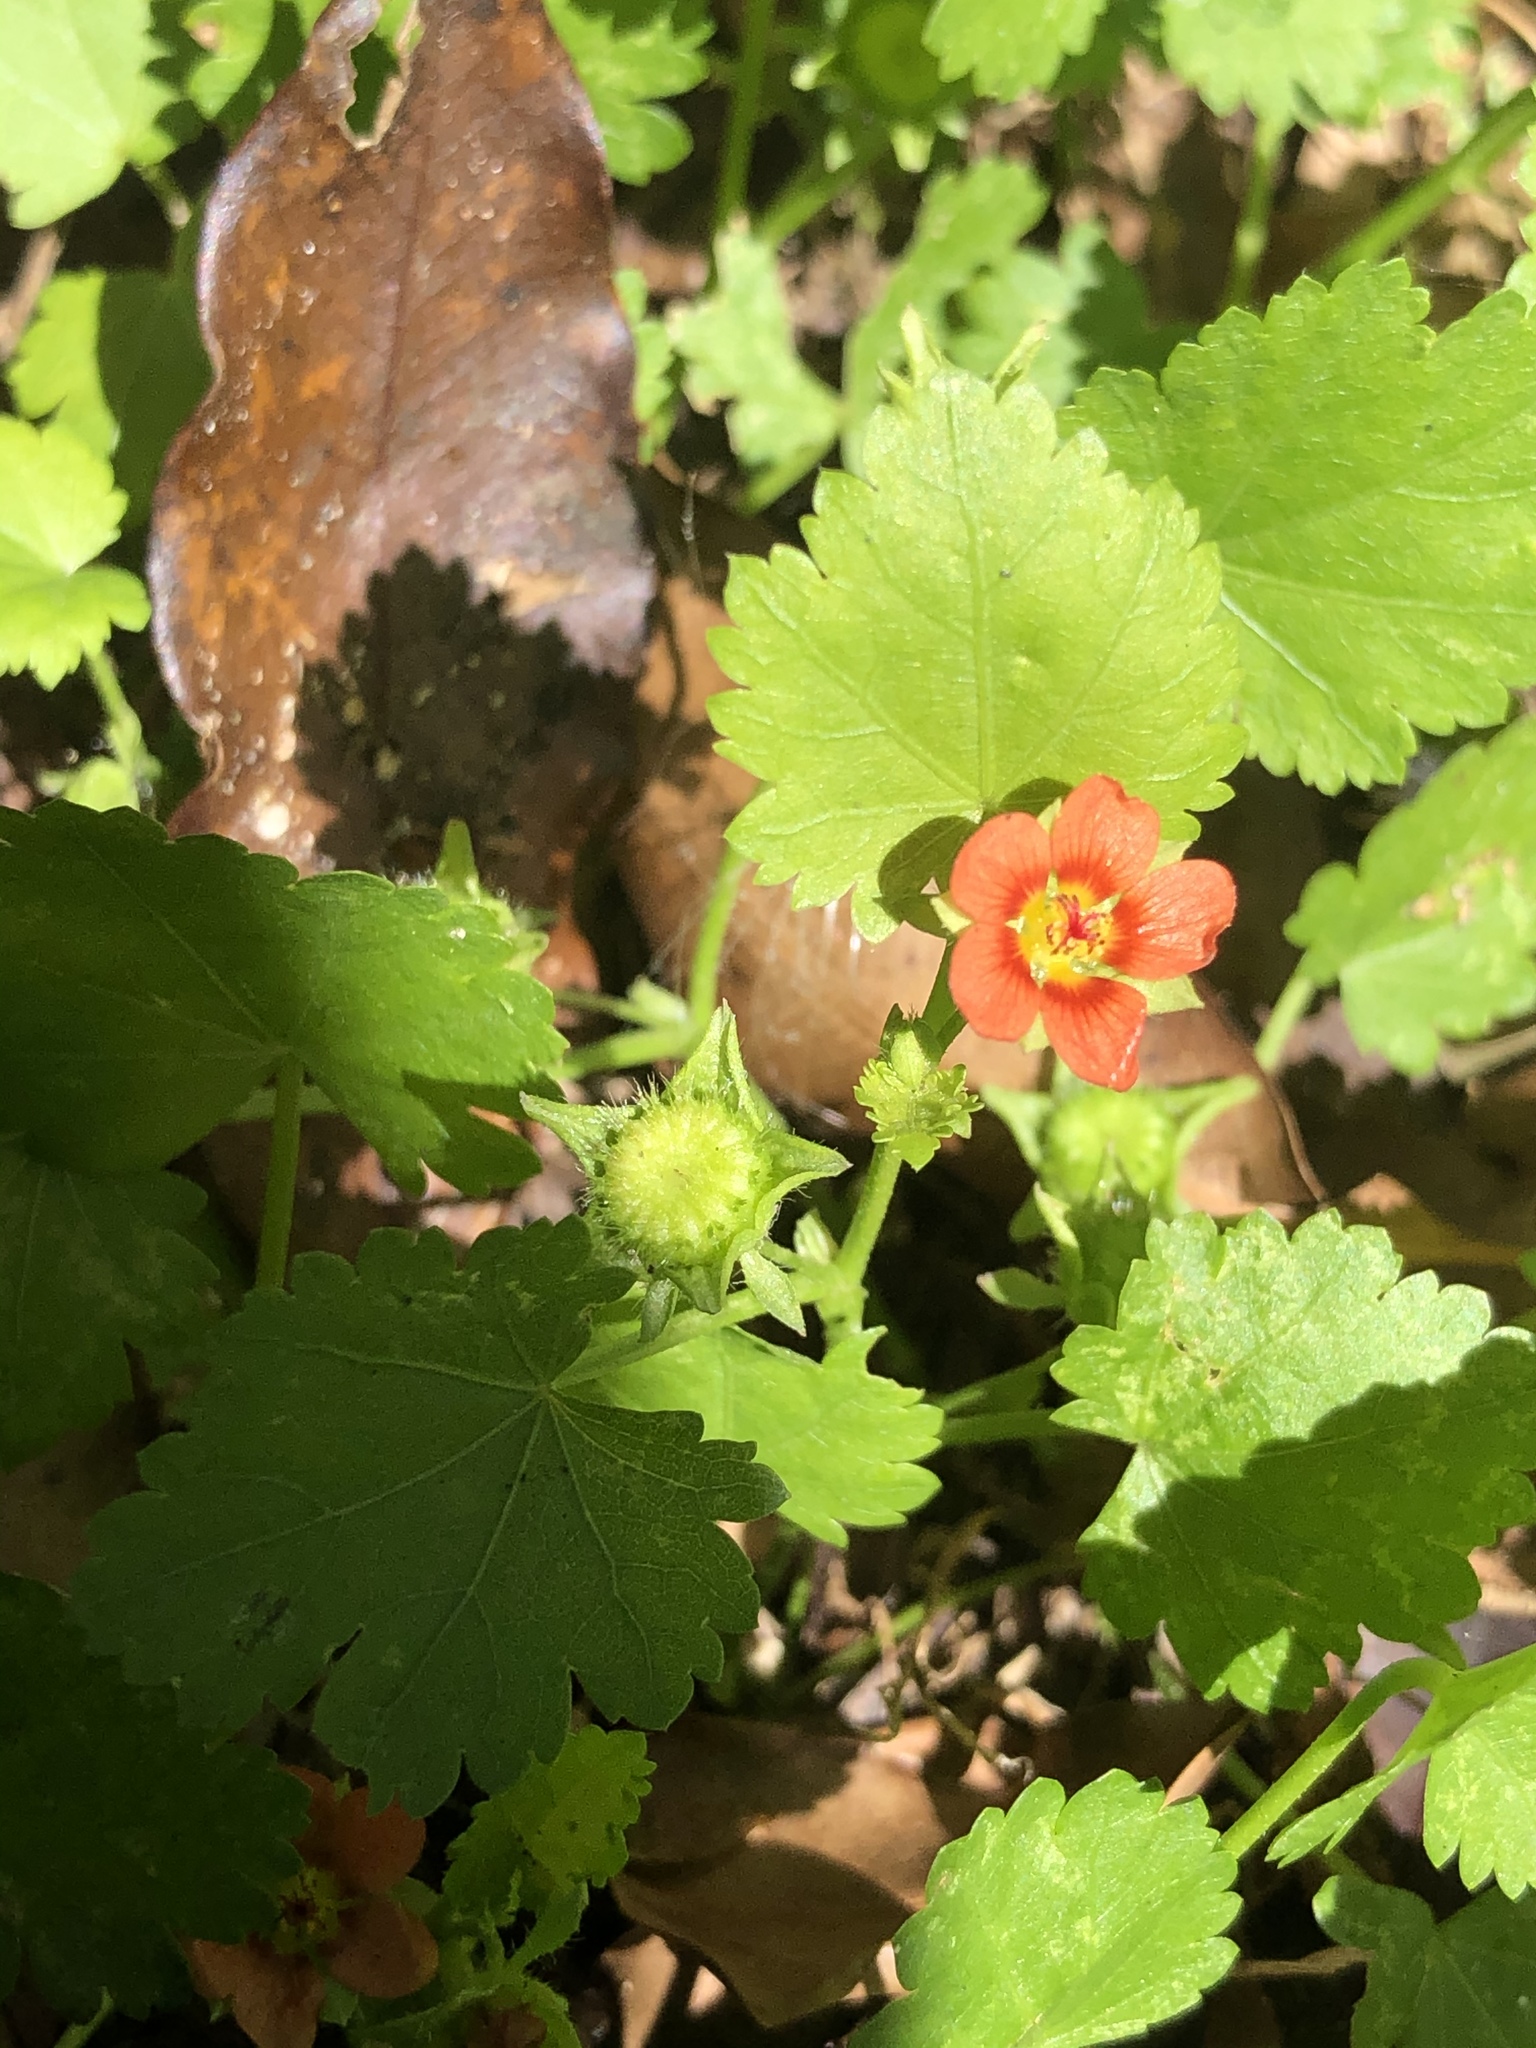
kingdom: Plantae
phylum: Tracheophyta
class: Magnoliopsida
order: Malvales
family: Malvaceae
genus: Modiola
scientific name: Modiola caroliniana
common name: Carolina bristlemallow
